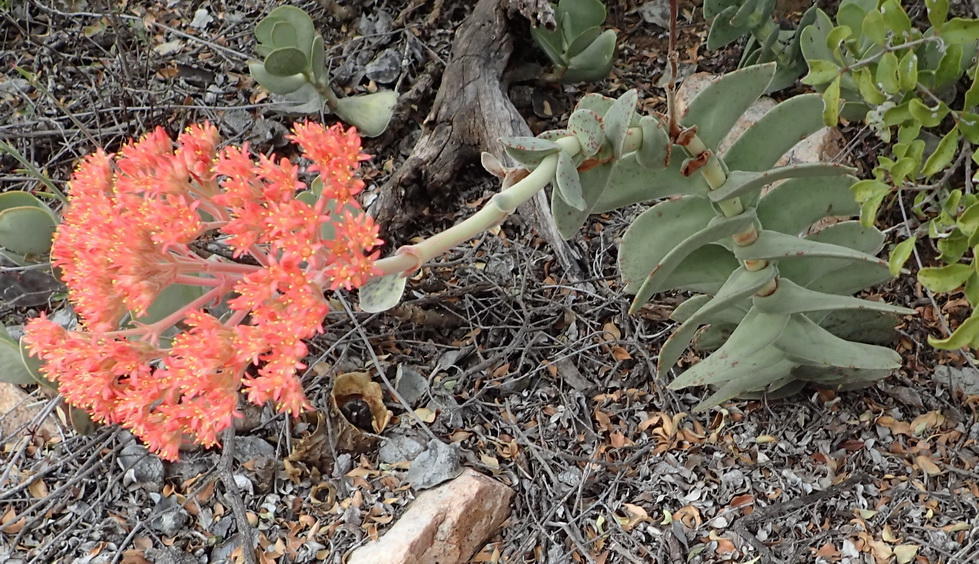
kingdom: Plantae
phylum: Tracheophyta
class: Magnoliopsida
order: Saxifragales
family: Crassulaceae
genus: Crassula
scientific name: Crassula perfoliata
